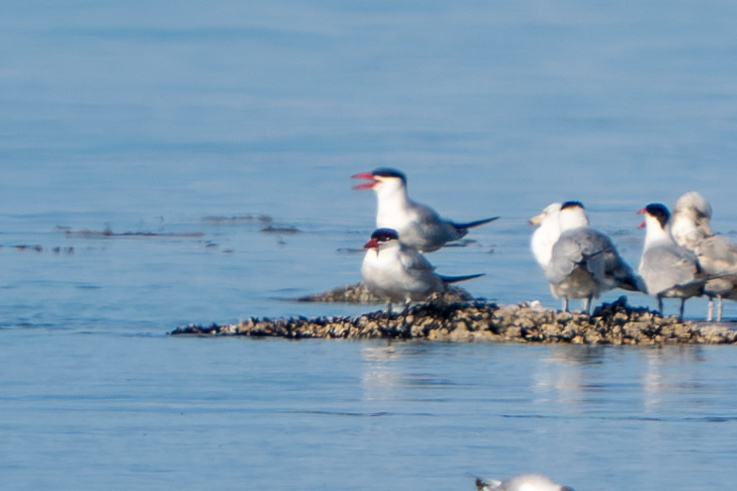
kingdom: Animalia
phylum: Chordata
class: Aves
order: Charadriiformes
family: Laridae
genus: Hydroprogne
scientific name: Hydroprogne caspia
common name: Caspian tern
